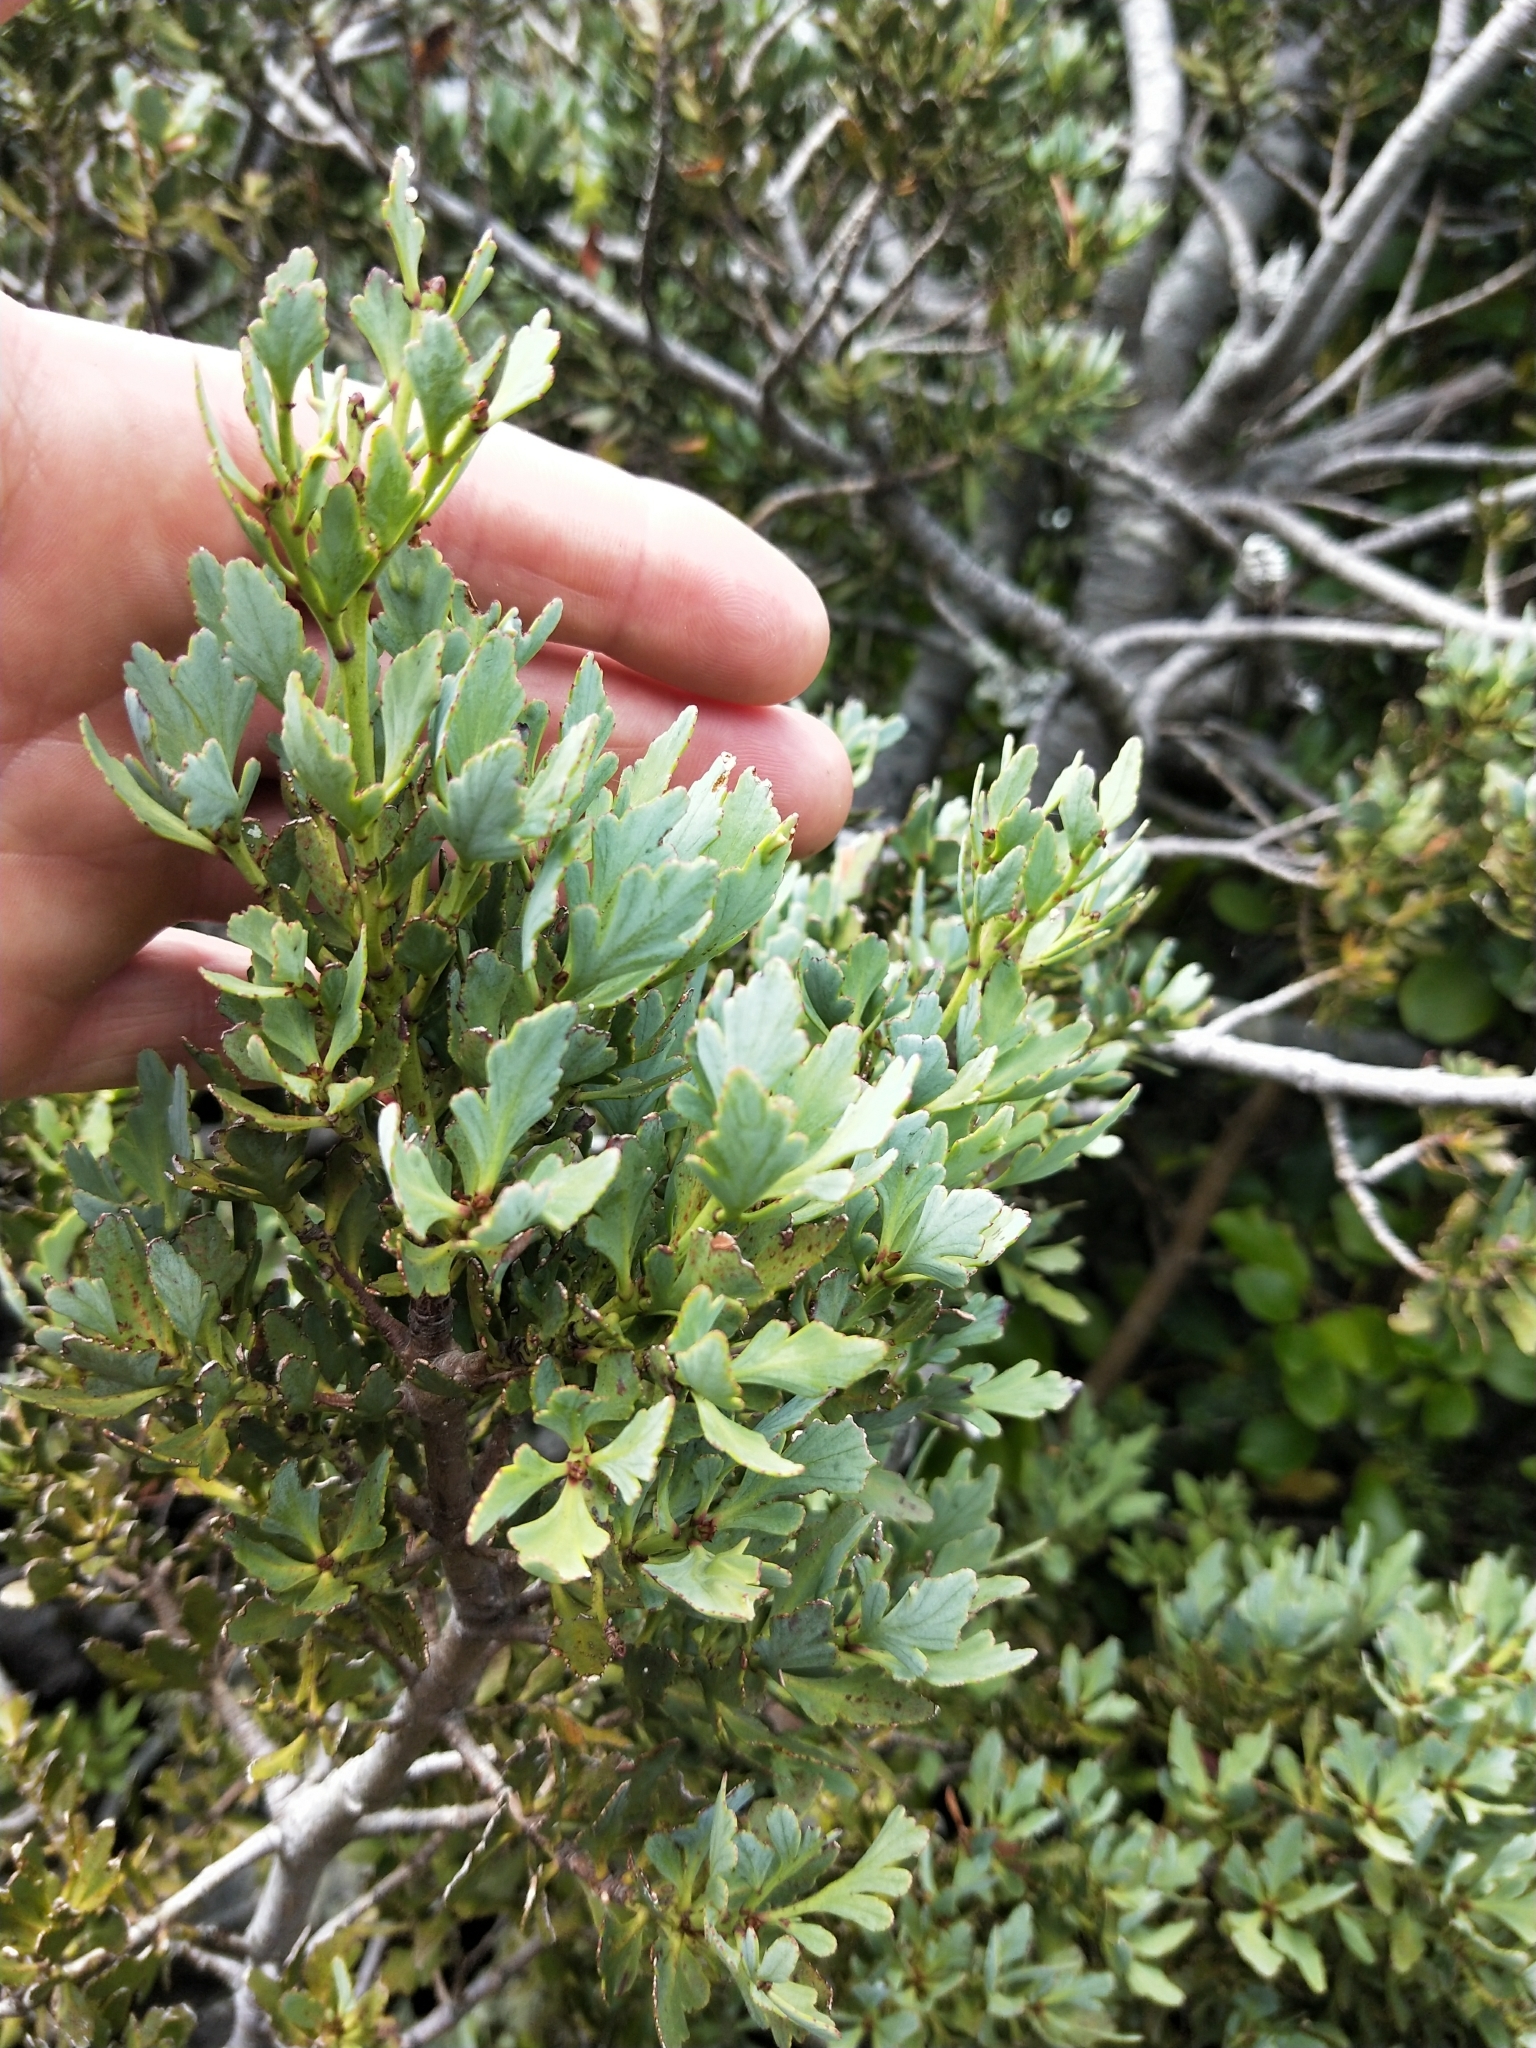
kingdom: Plantae
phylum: Tracheophyta
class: Pinopsida
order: Pinales
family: Phyllocladaceae
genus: Phyllocladus
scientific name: Phyllocladus trichomanoides
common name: Celery pine
